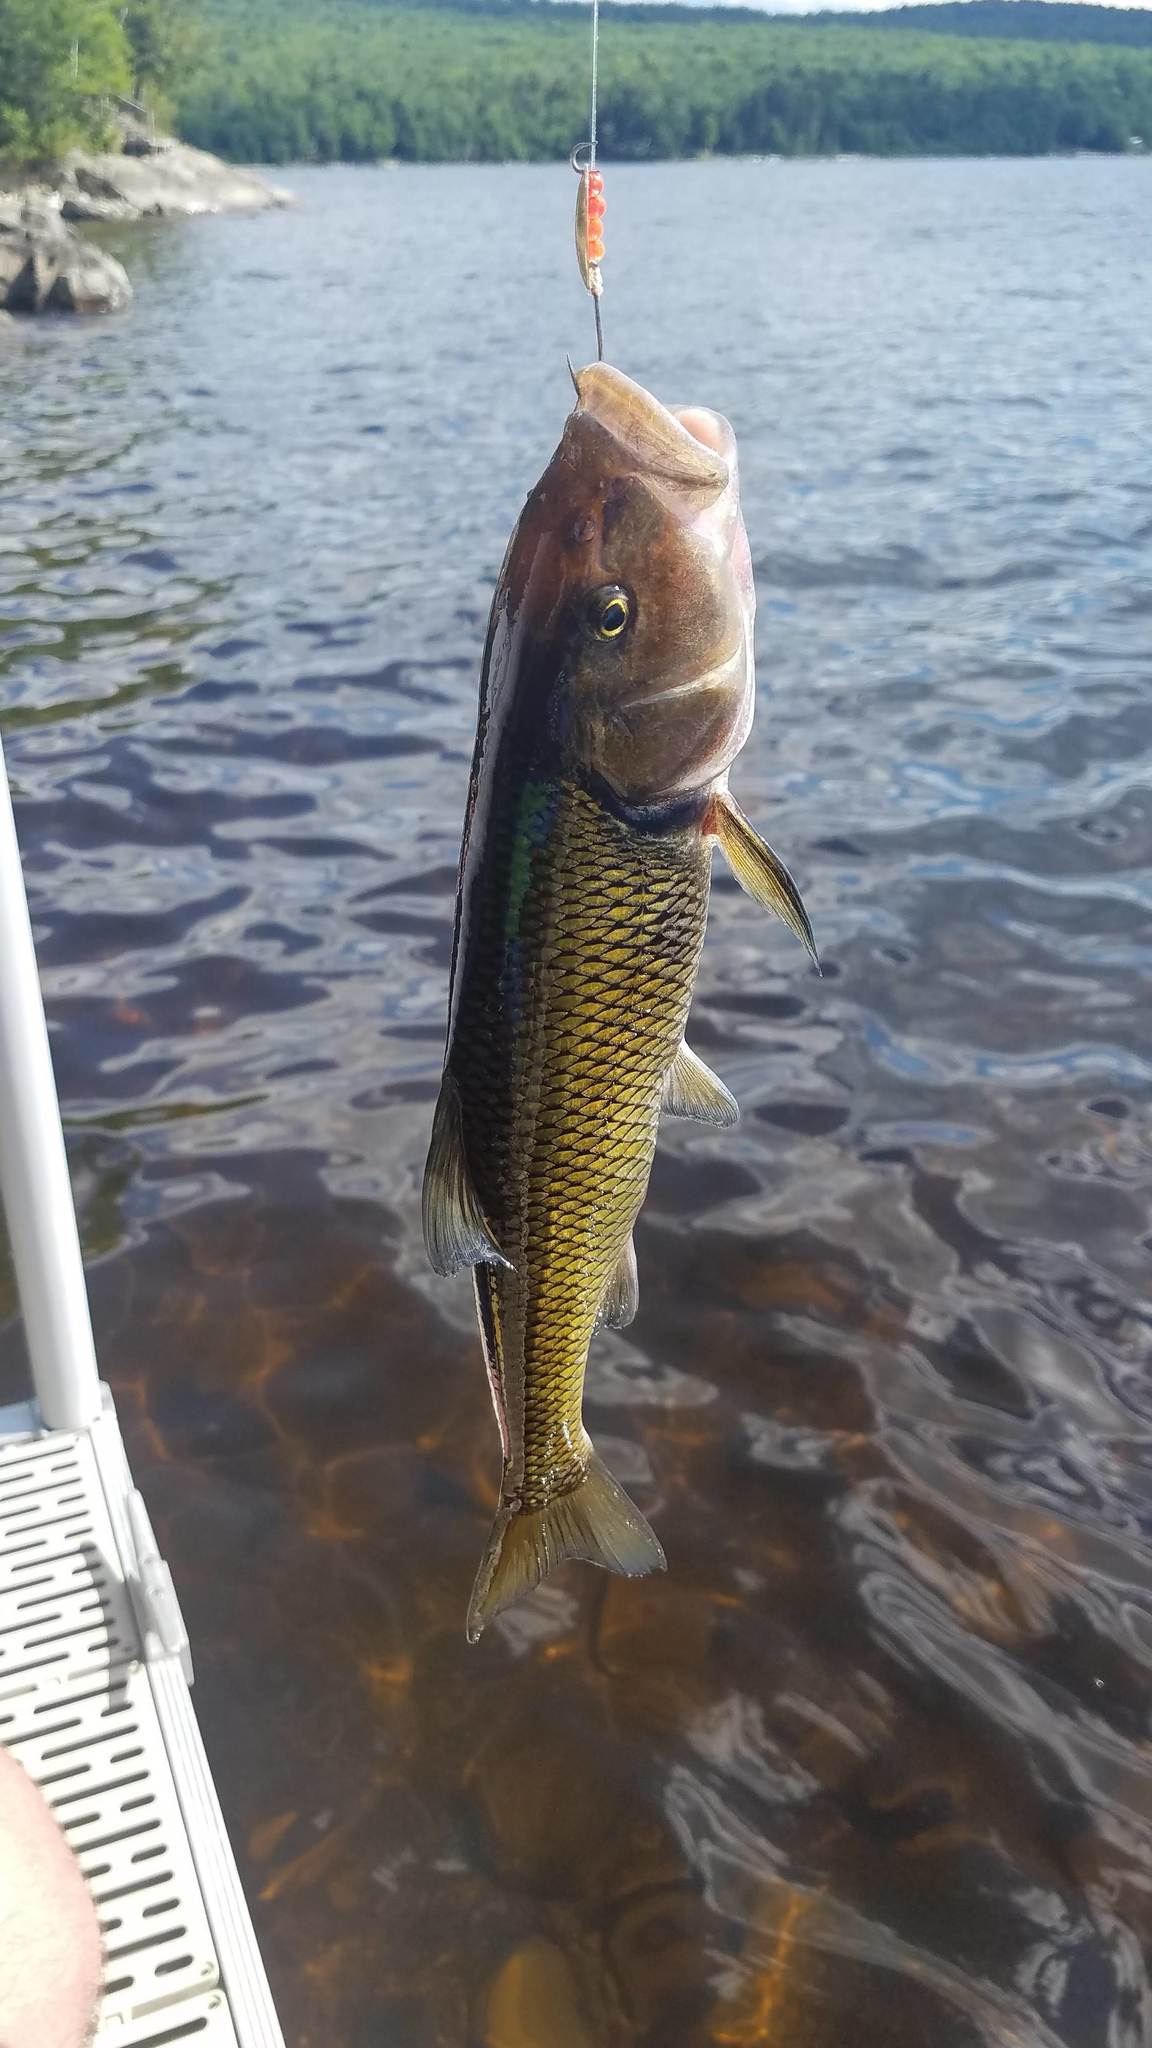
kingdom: Animalia
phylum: Chordata
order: Cypriniformes
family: Cyprinidae
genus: Semotilus
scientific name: Semotilus corporalis
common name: Fallfish
